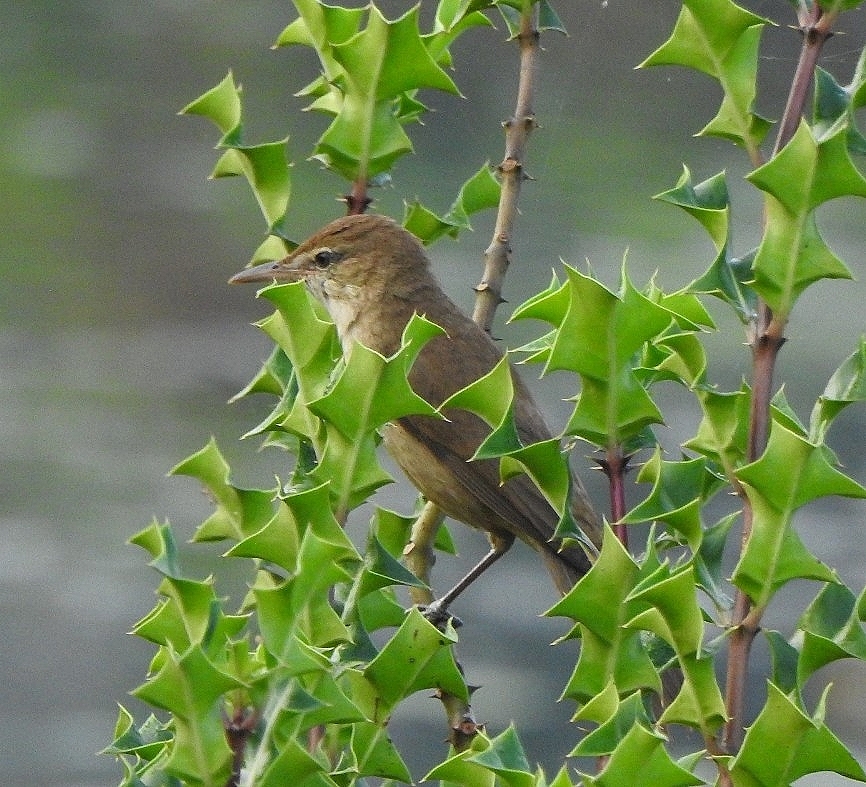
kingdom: Animalia
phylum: Chordata
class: Aves
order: Passeriformes
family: Acrocephalidae
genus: Acrocephalus
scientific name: Acrocephalus stentoreus
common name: Clamorous reed warbler
